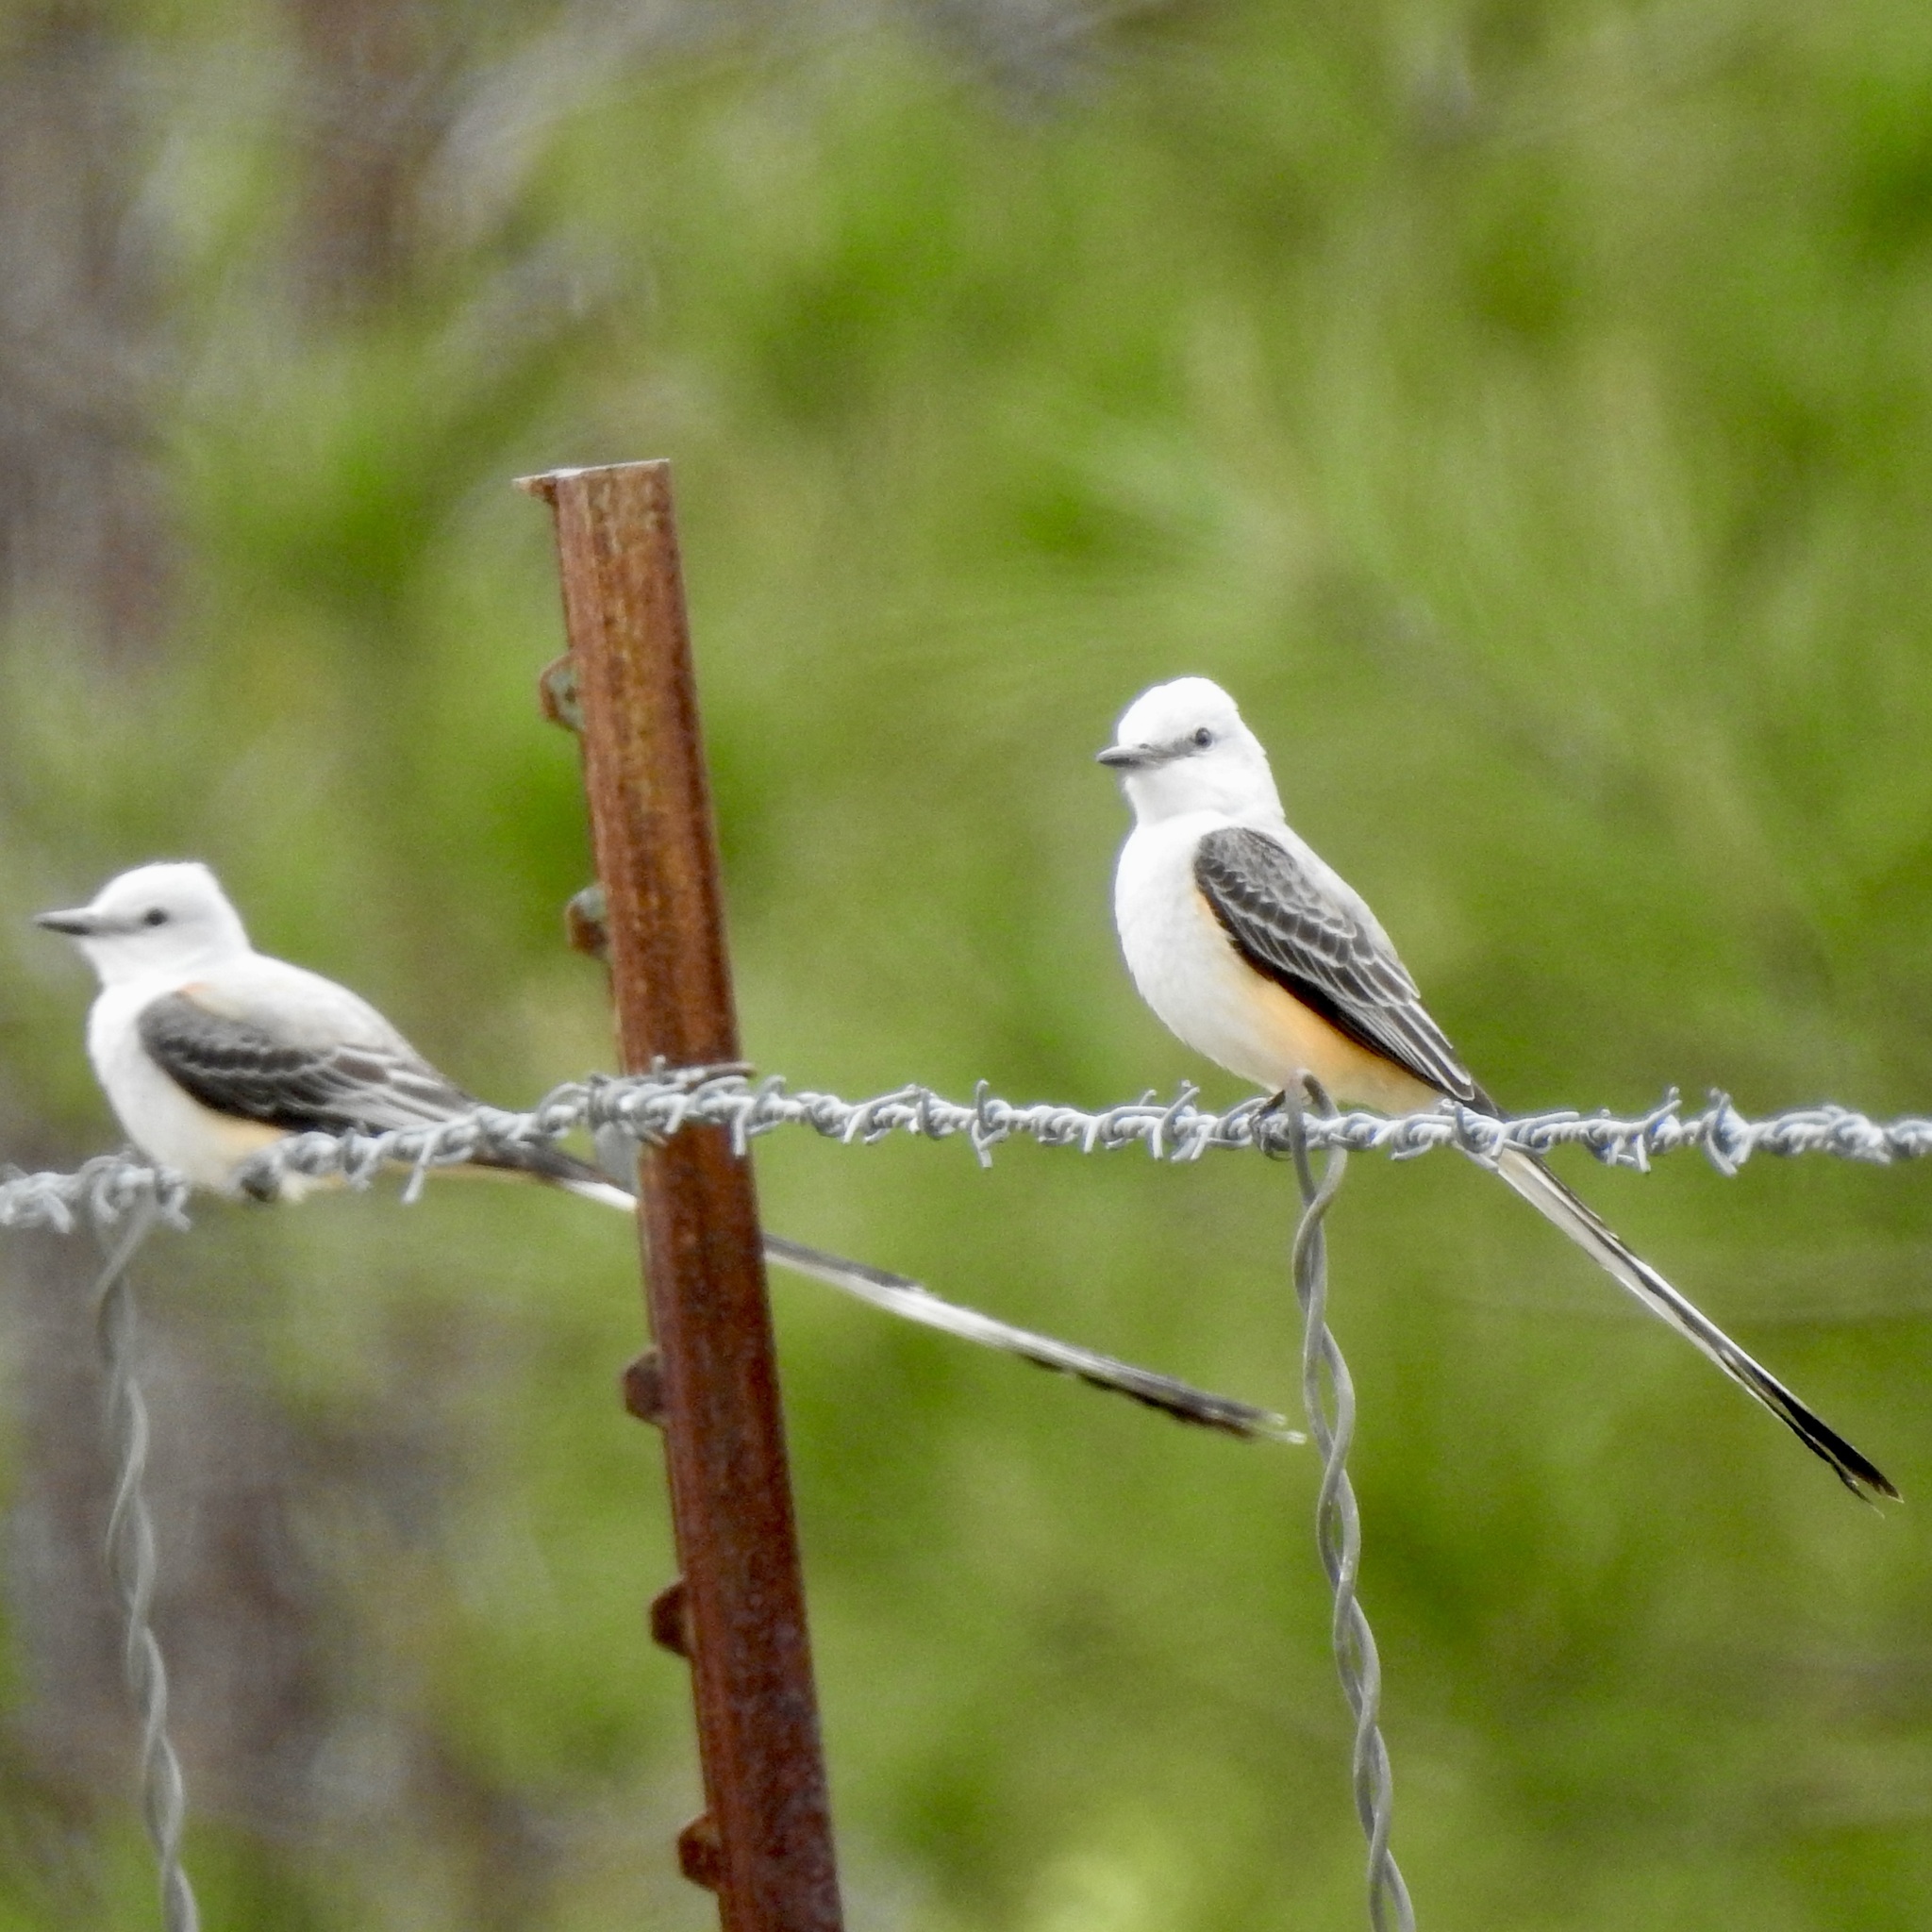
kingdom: Animalia
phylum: Chordata
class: Aves
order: Passeriformes
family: Tyrannidae
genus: Tyrannus
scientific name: Tyrannus forficatus
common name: Scissor-tailed flycatcher
